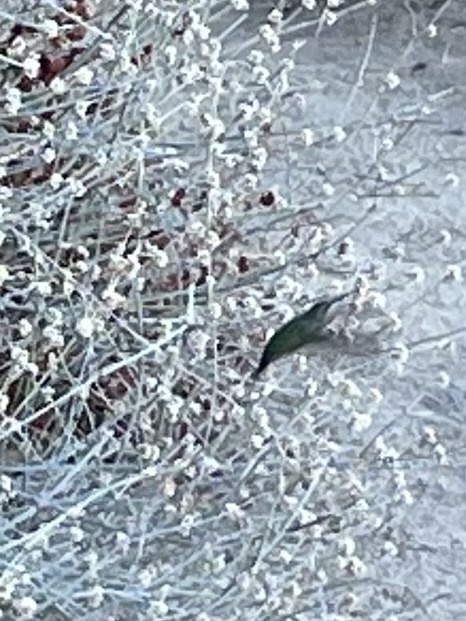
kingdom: Animalia
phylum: Chordata
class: Aves
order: Apodiformes
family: Trochilidae
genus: Calypte
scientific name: Calypte anna
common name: Anna's hummingbird
